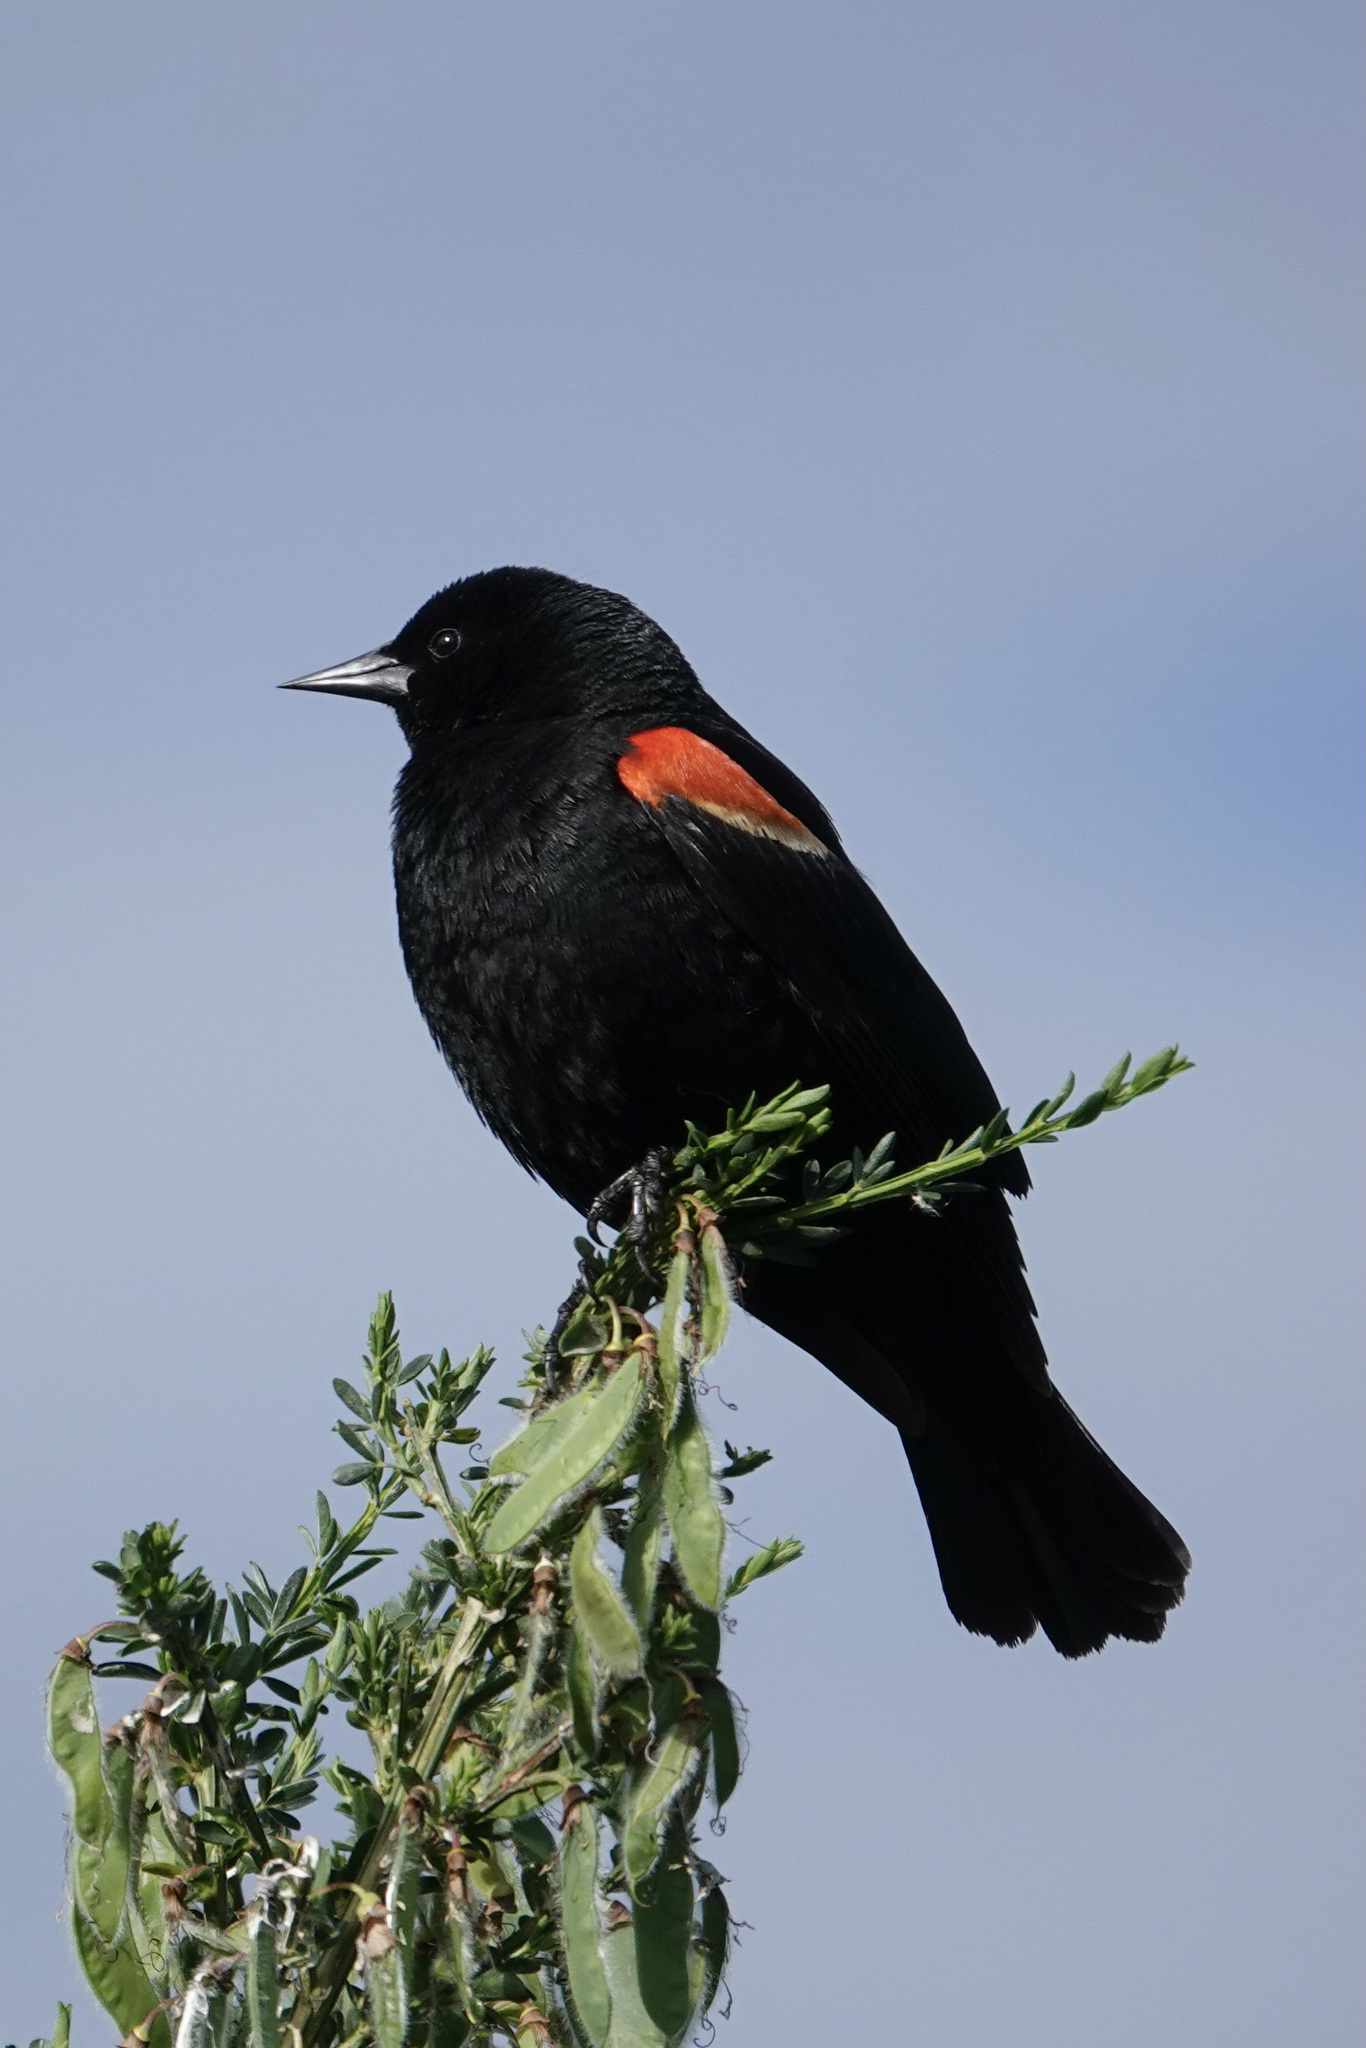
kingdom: Animalia
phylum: Chordata
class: Aves
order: Passeriformes
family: Icteridae
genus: Agelaius
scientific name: Agelaius phoeniceus
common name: Red-winged blackbird
